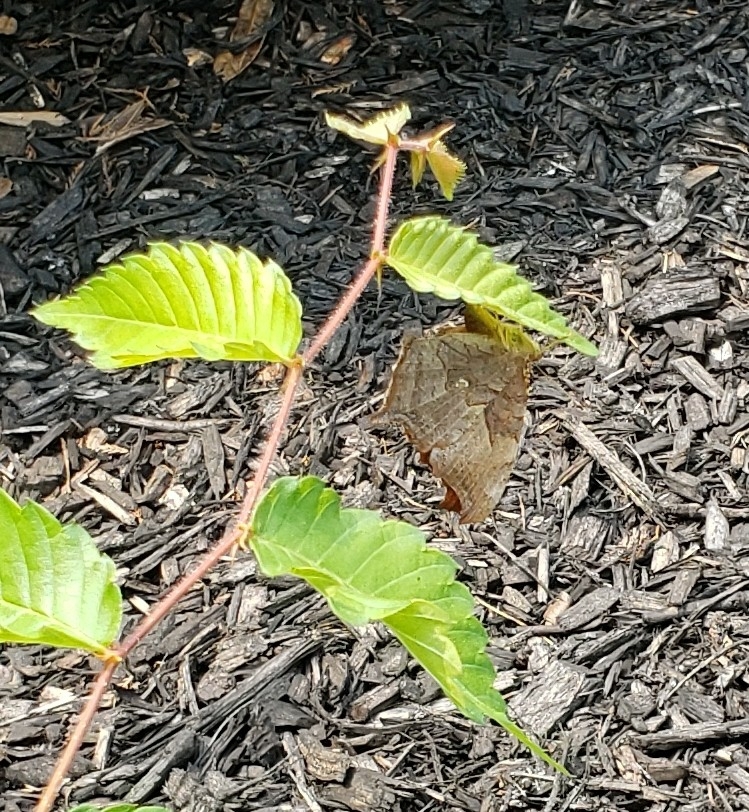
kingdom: Animalia
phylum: Arthropoda
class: Insecta
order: Lepidoptera
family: Nymphalidae
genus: Polygonia
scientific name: Polygonia interrogationis
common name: Question mark
